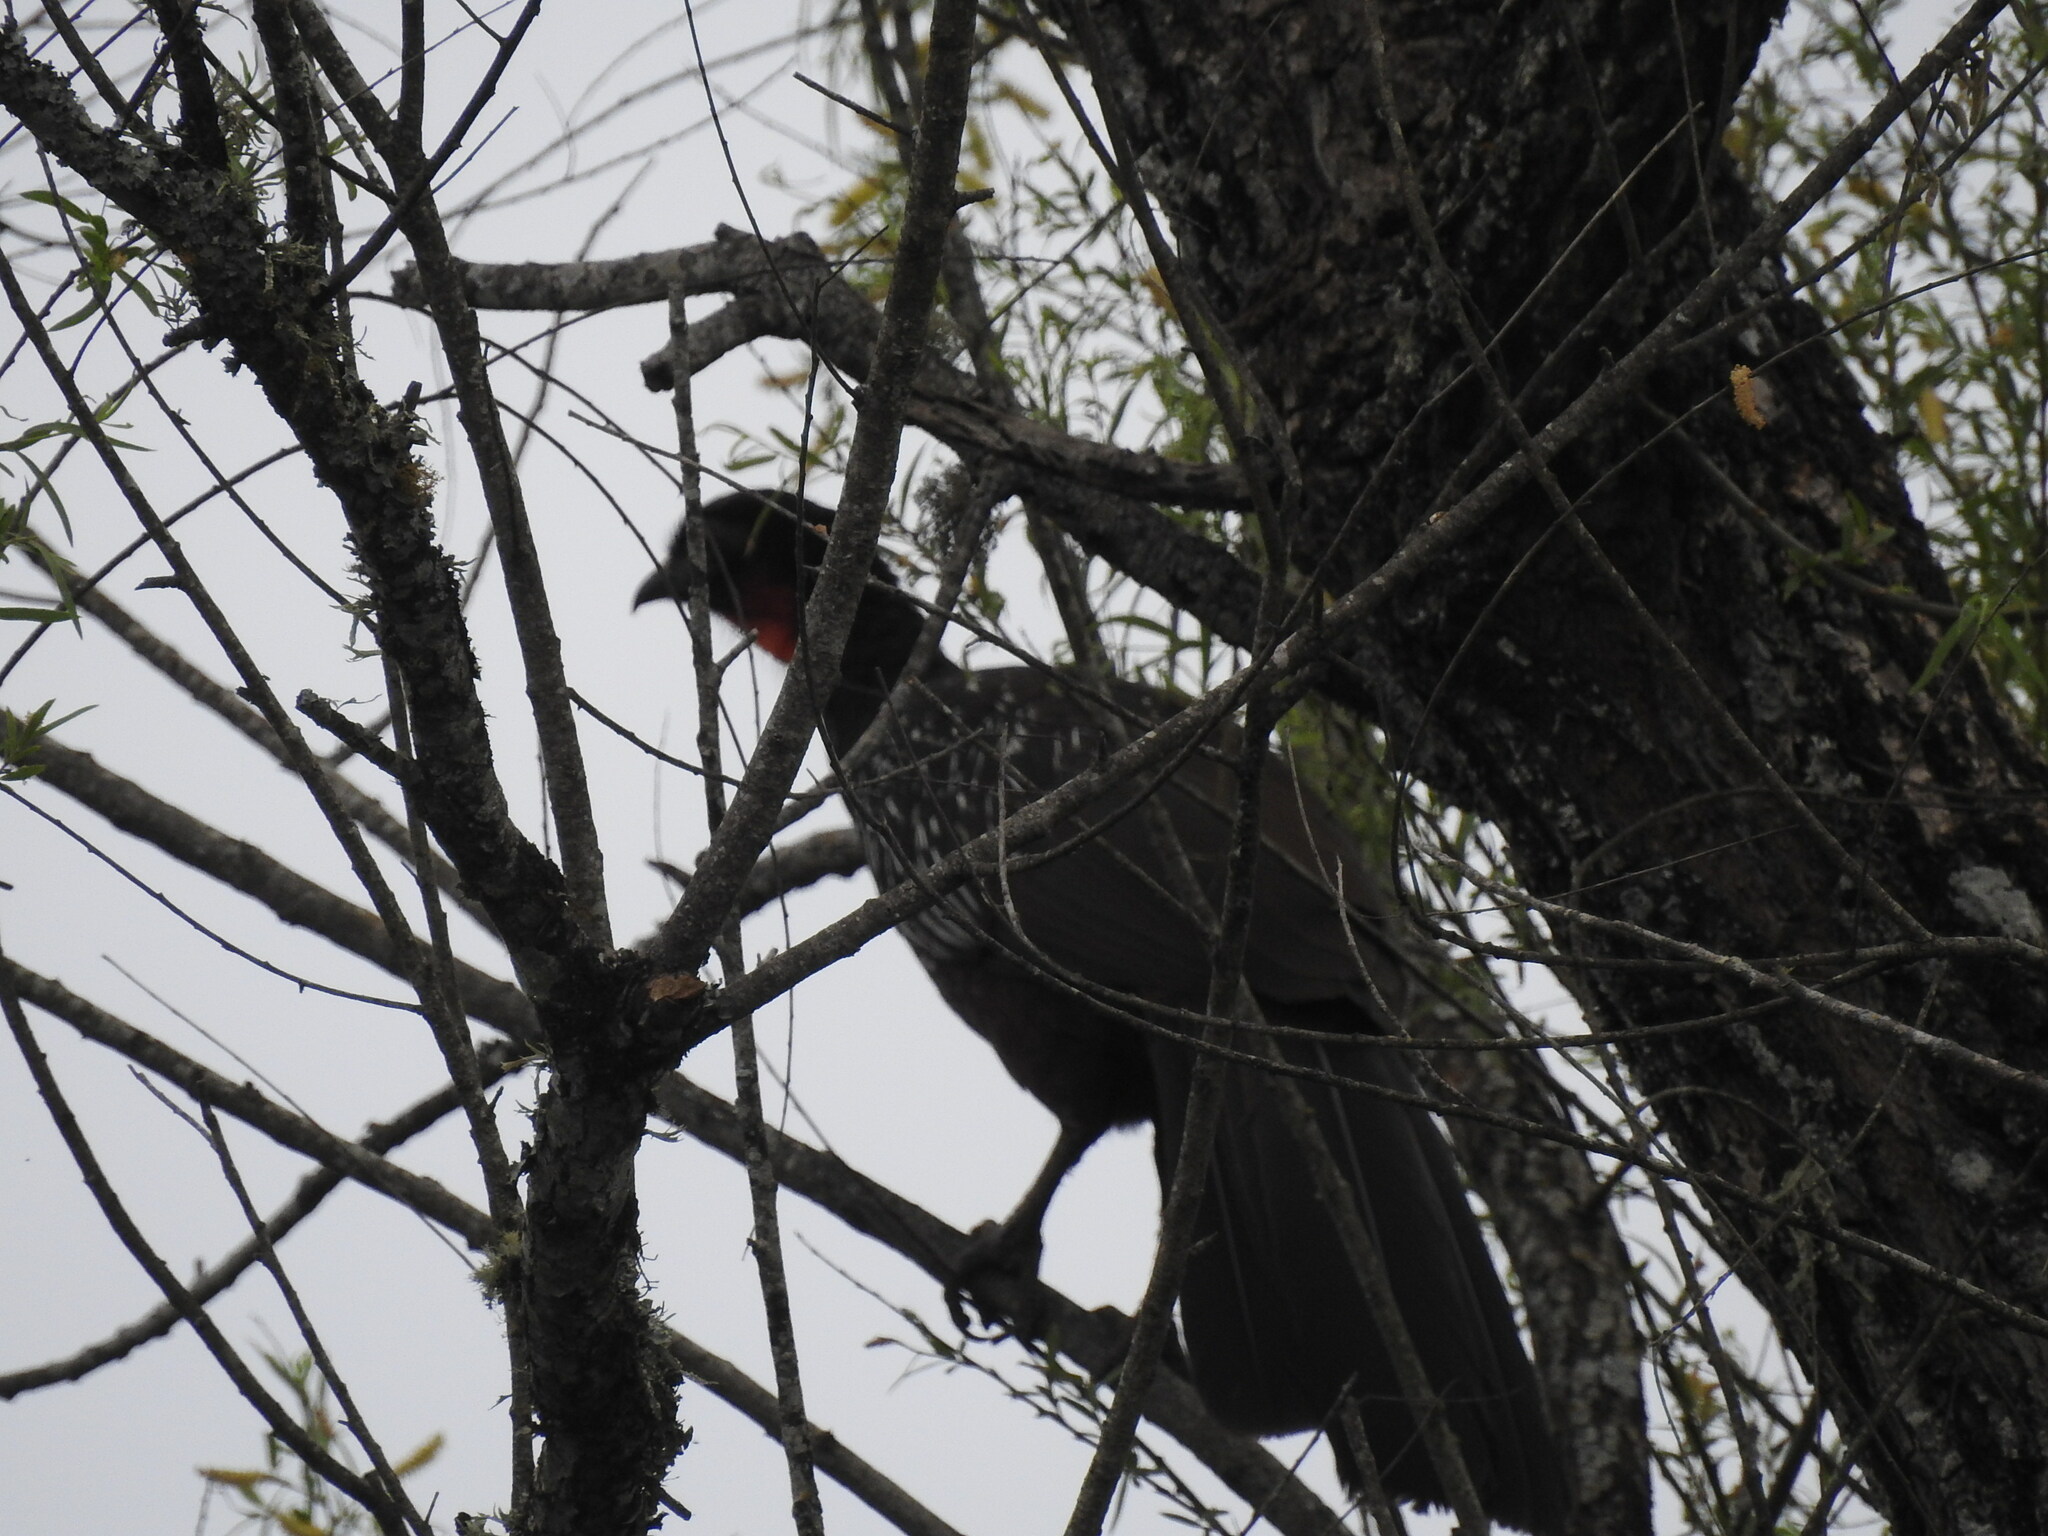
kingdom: Animalia
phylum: Chordata
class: Aves
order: Galliformes
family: Cracidae
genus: Penelope
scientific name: Penelope bridgesi
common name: Yungas guan
